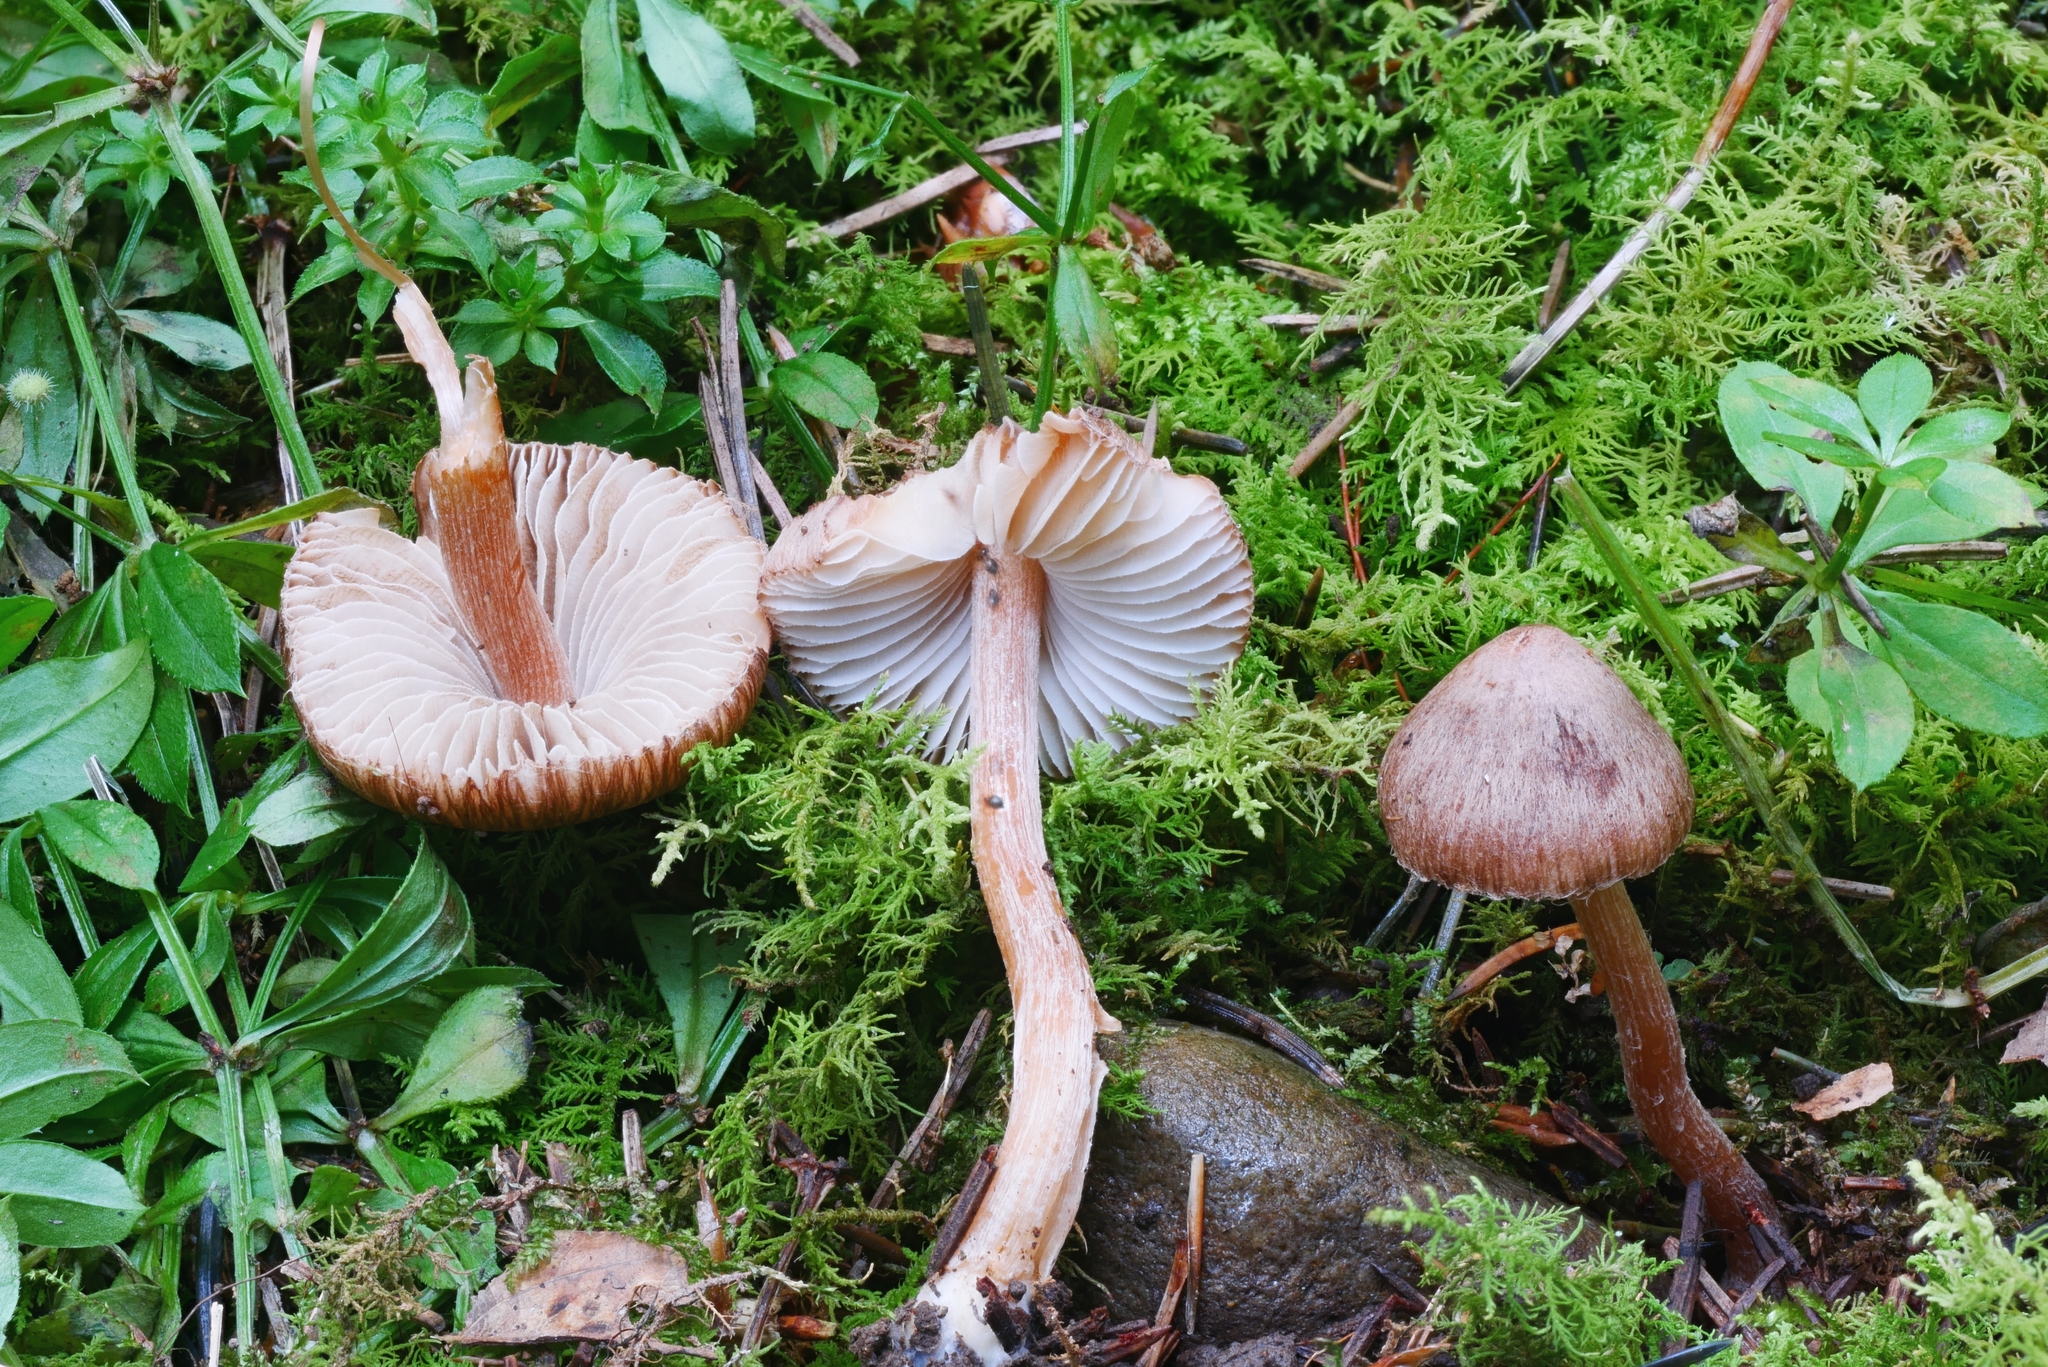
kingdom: Fungi
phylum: Basidiomycota
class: Agaricomycetes
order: Agaricales
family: Inocybaceae
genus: Inocybe
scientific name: Inocybe nitidiuscula
